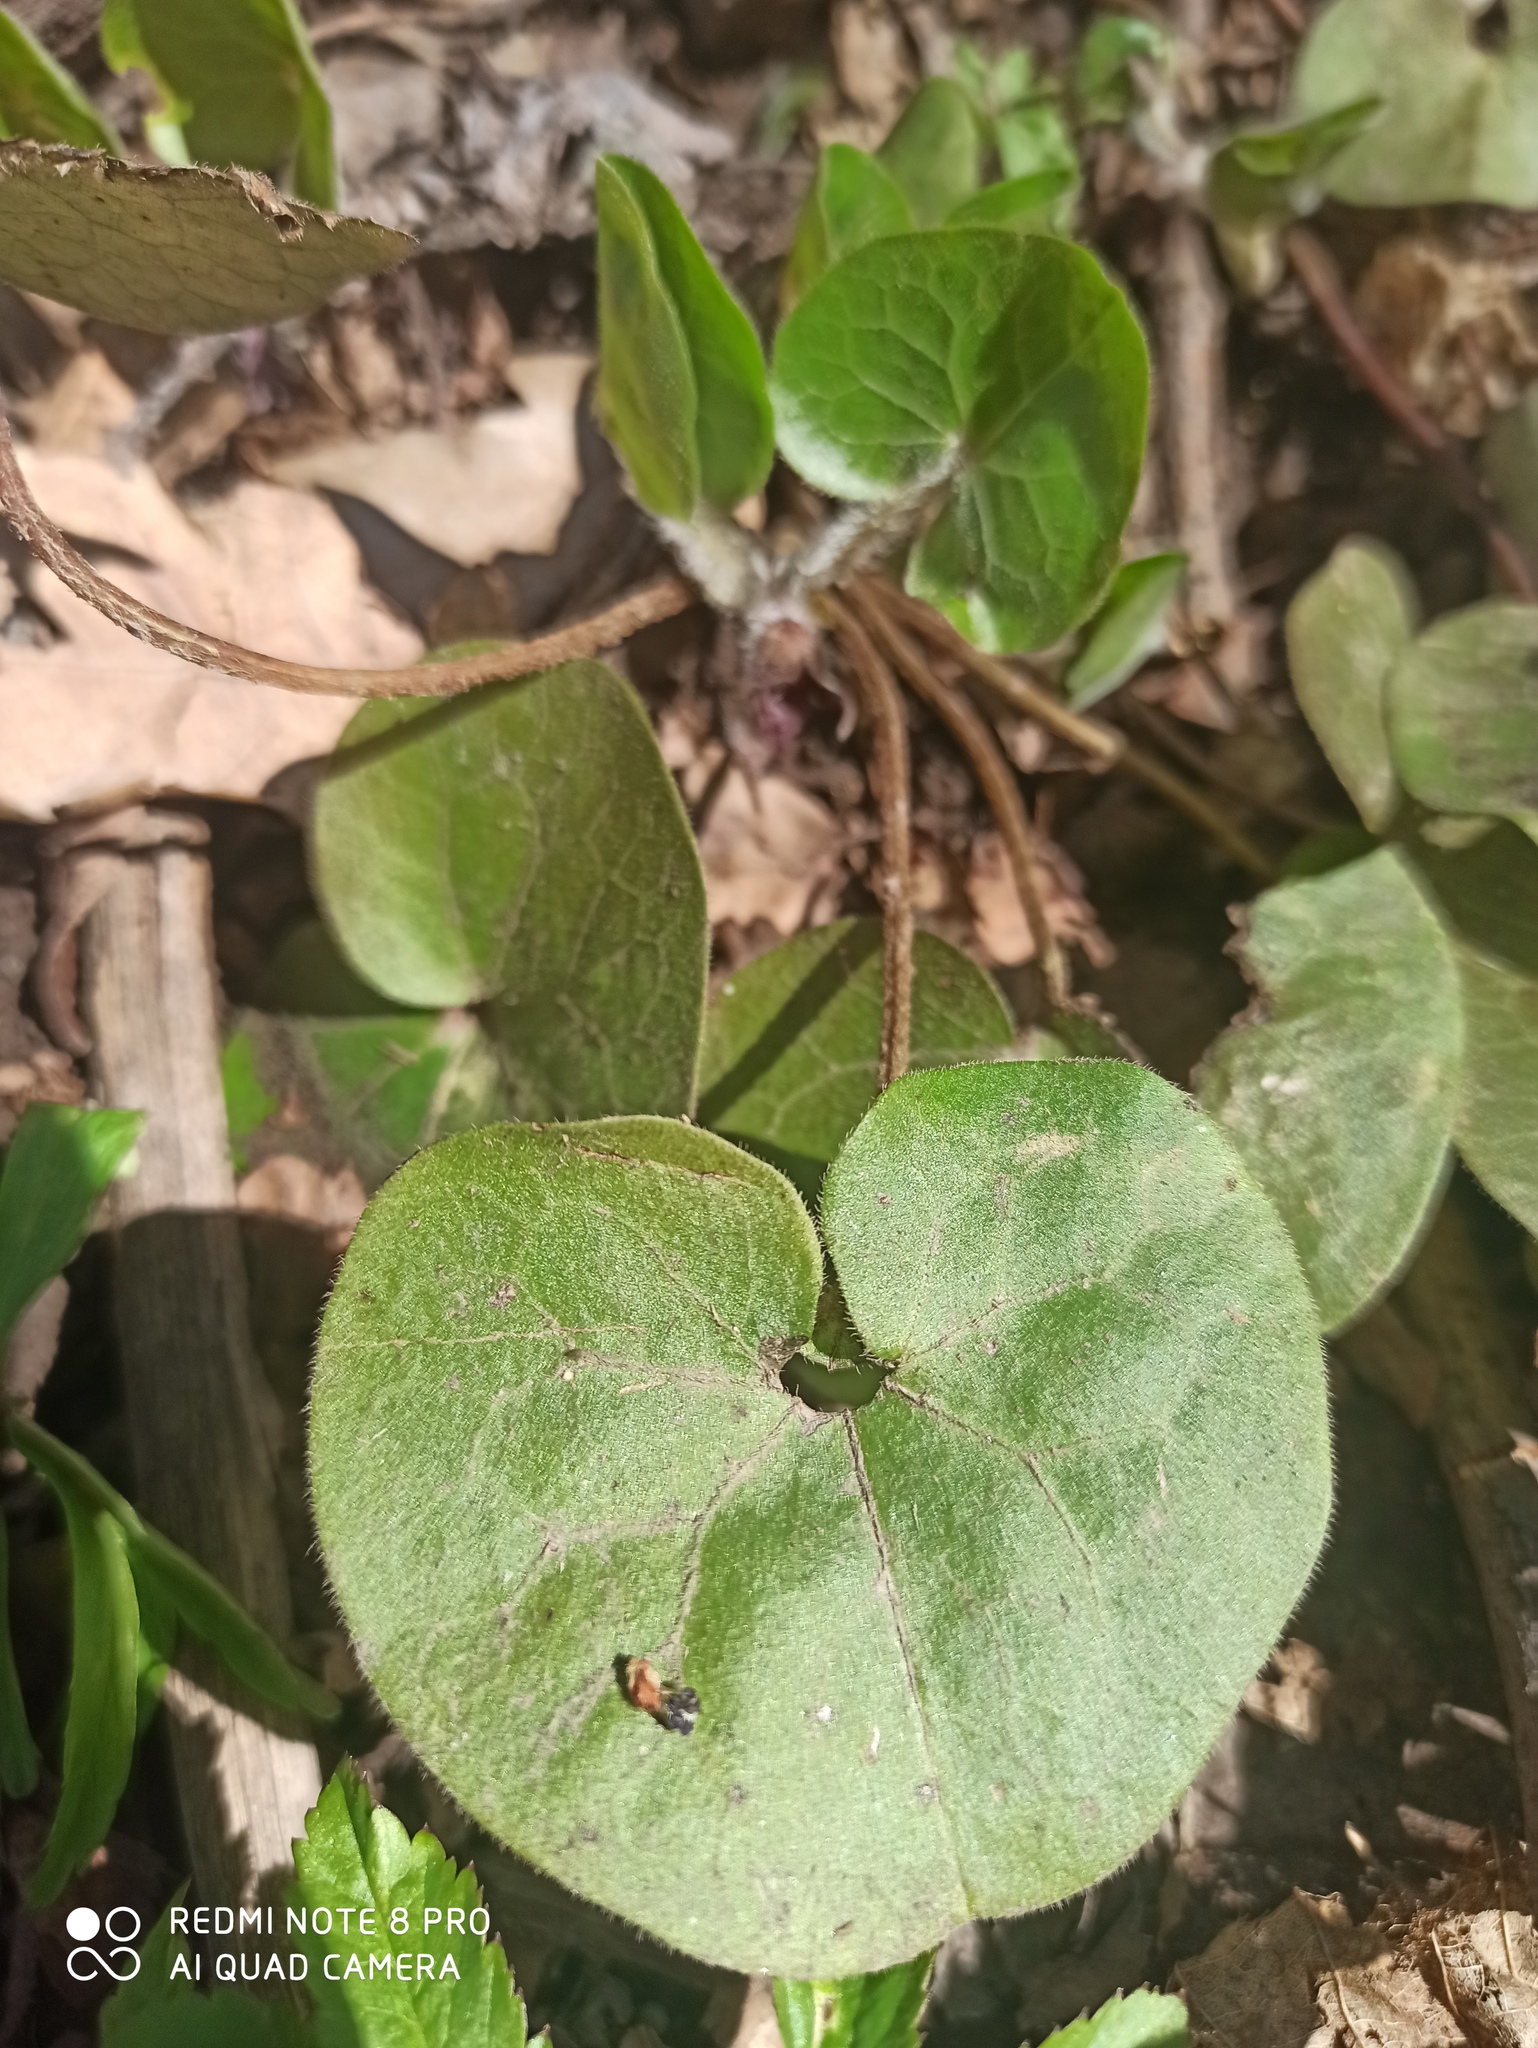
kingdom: Plantae
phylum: Tracheophyta
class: Magnoliopsida
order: Piperales
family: Aristolochiaceae
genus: Asarum
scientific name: Asarum europaeum
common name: Asarabacca
